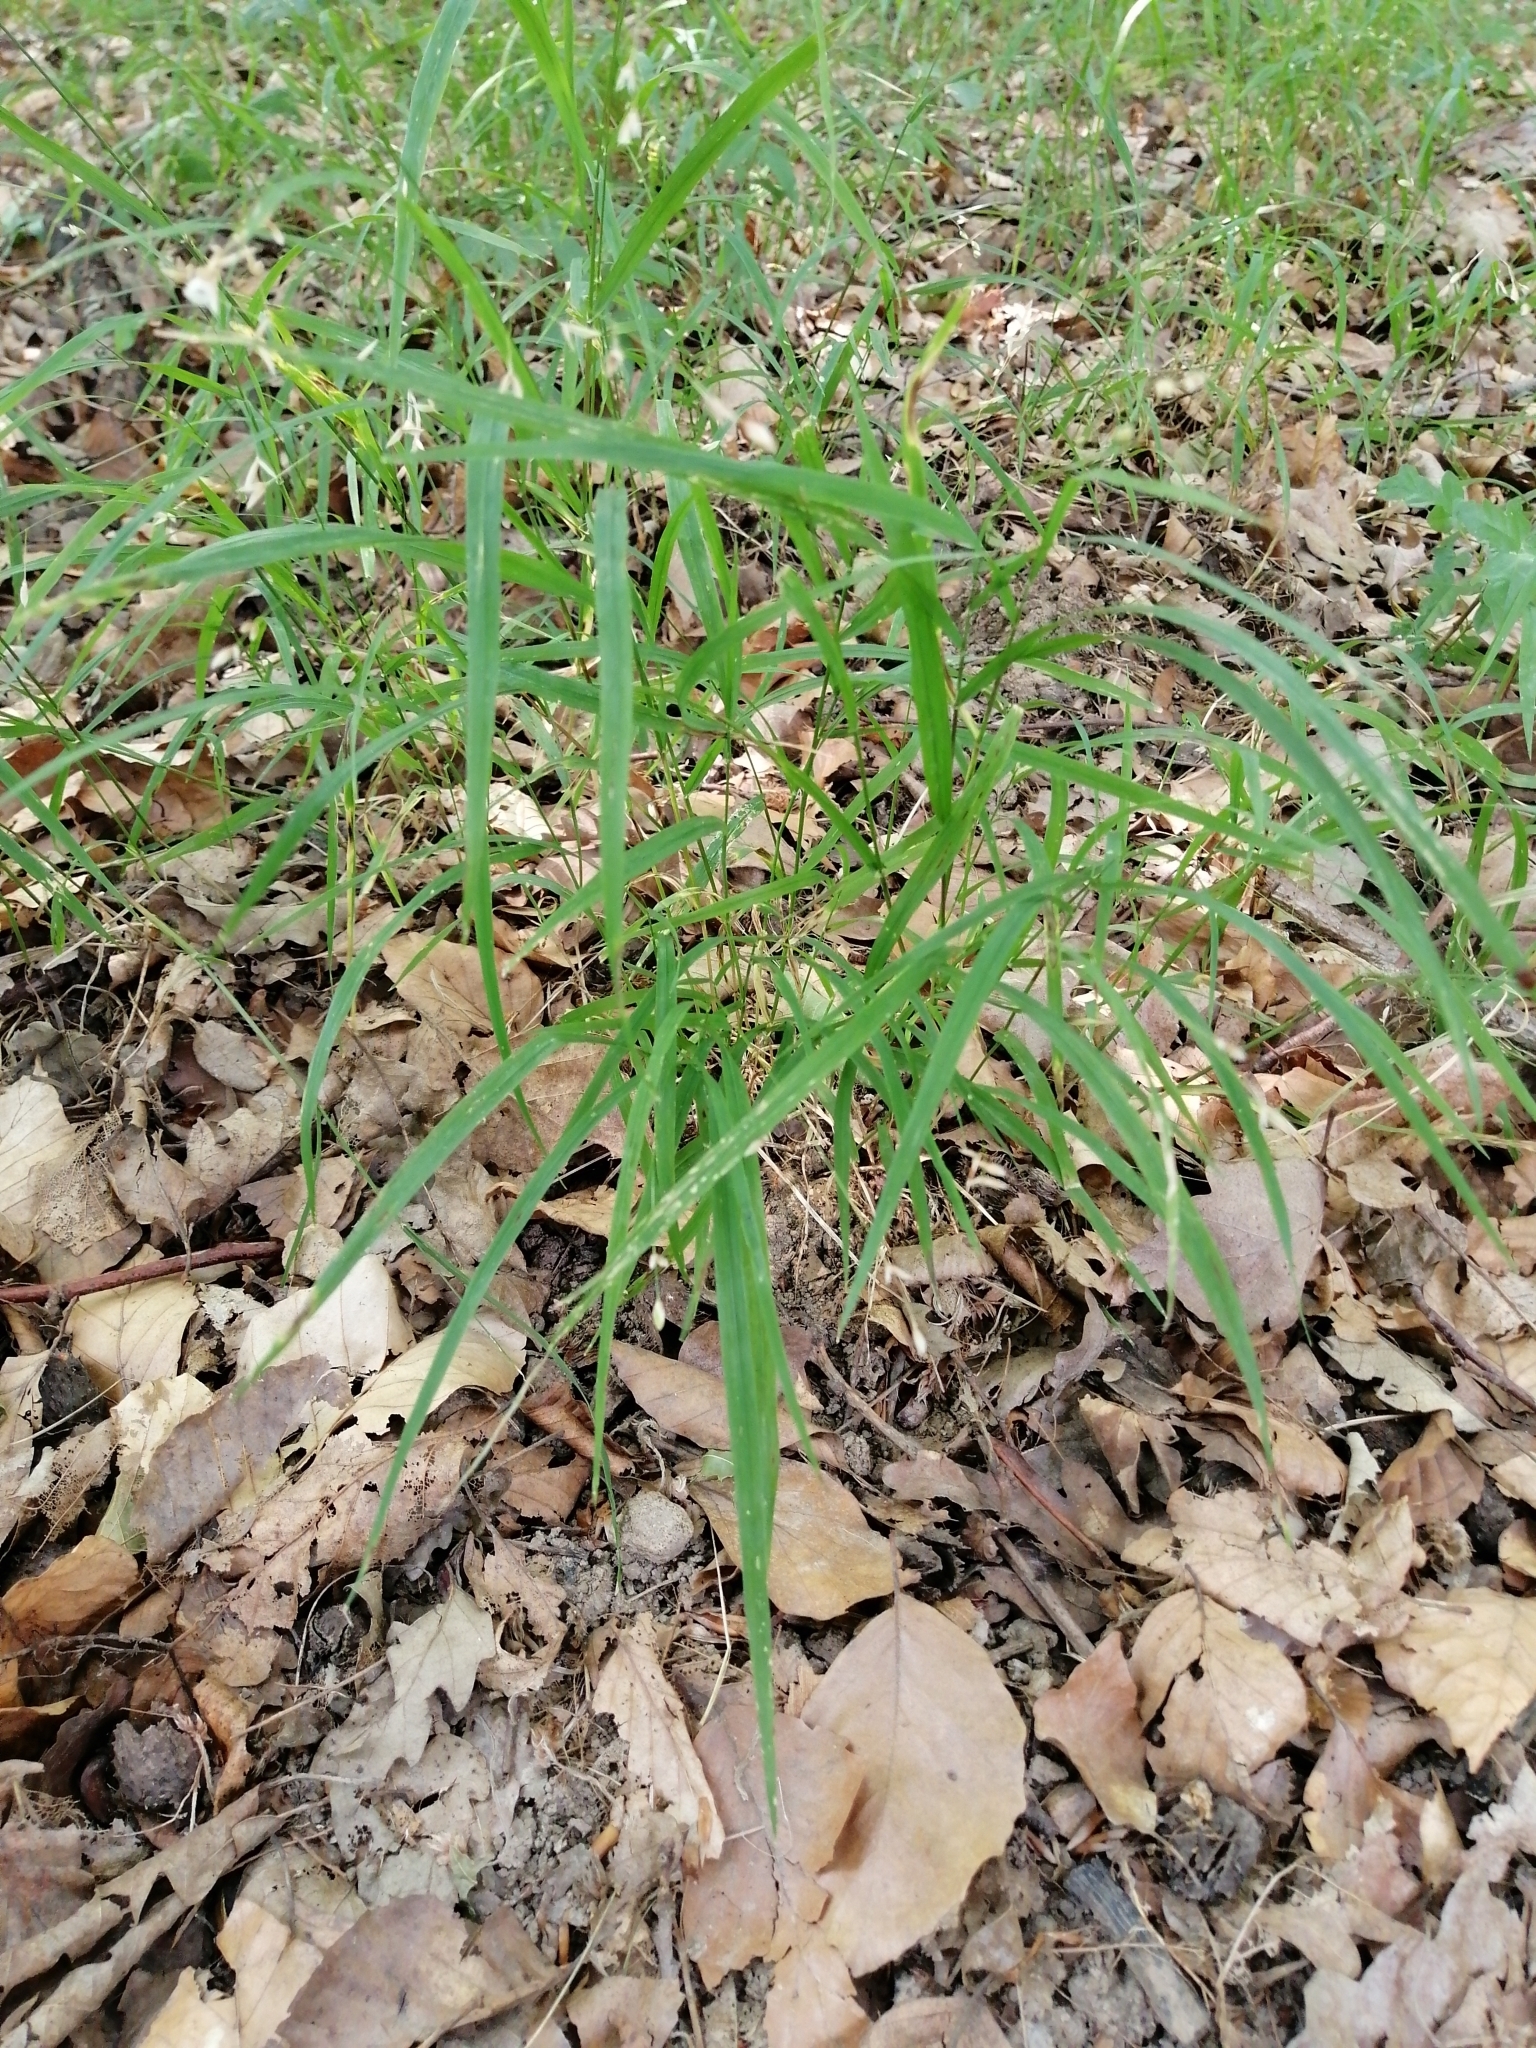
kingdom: Plantae
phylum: Tracheophyta
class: Liliopsida
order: Poales
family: Poaceae
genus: Melica
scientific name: Melica uniflora
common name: Wood melick
